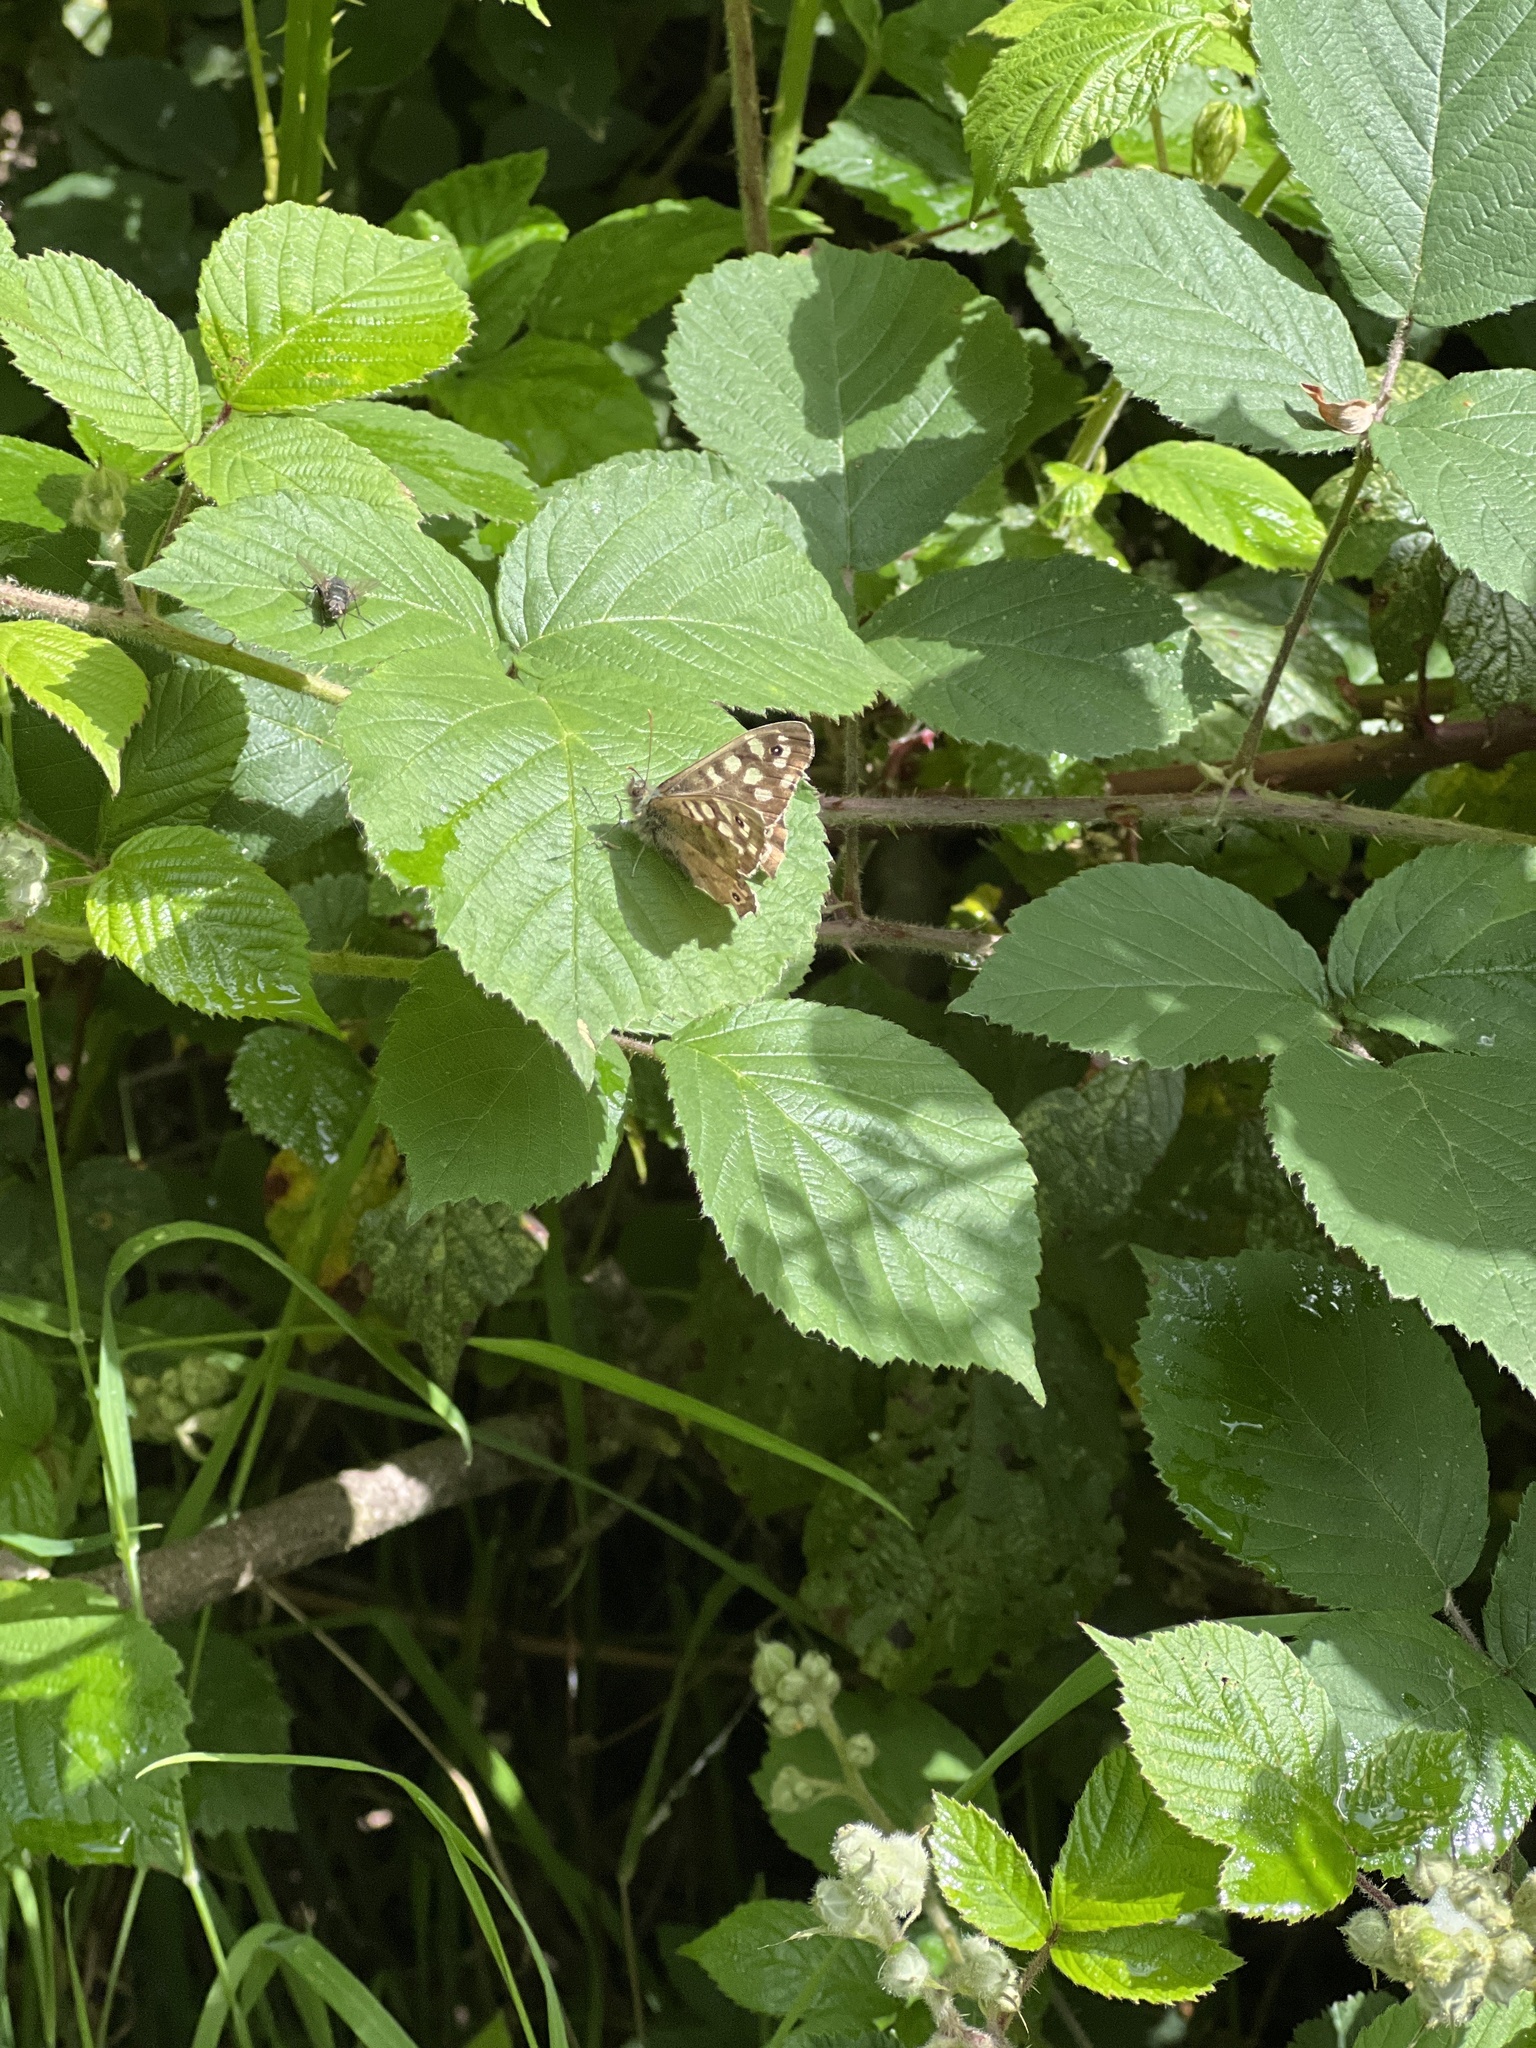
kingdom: Animalia
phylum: Arthropoda
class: Insecta
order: Lepidoptera
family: Nymphalidae
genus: Pararge
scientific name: Pararge aegeria
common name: Speckled wood
